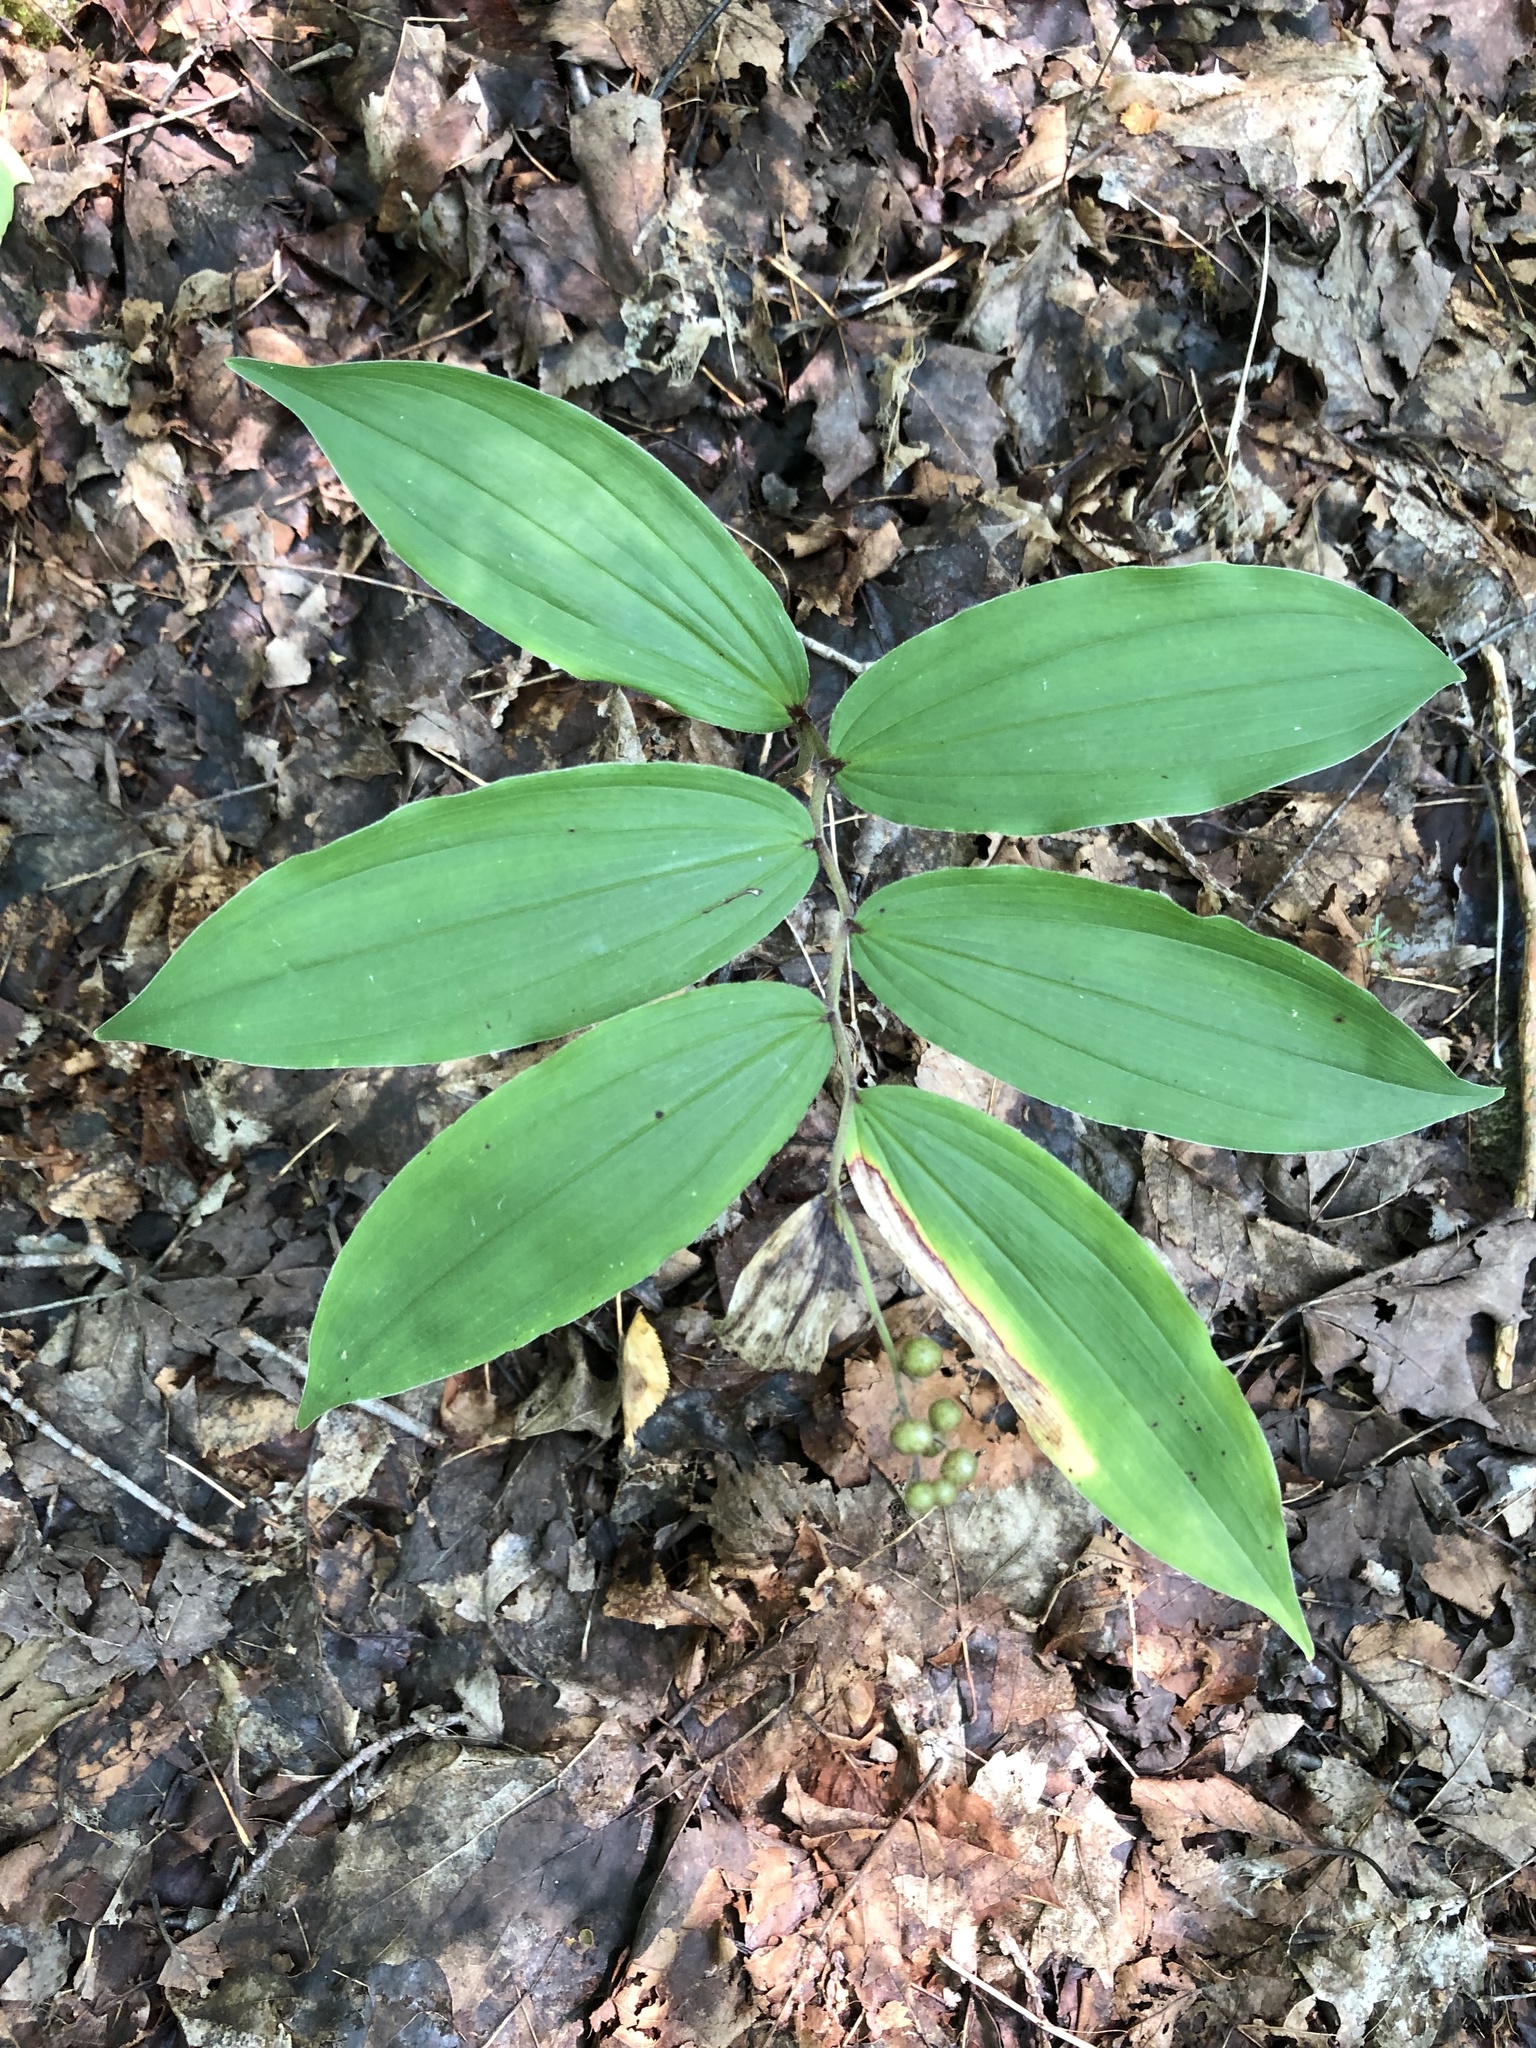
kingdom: Plantae
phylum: Tracheophyta
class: Liliopsida
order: Asparagales
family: Asparagaceae
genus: Maianthemum
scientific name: Maianthemum racemosum
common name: False spikenard
